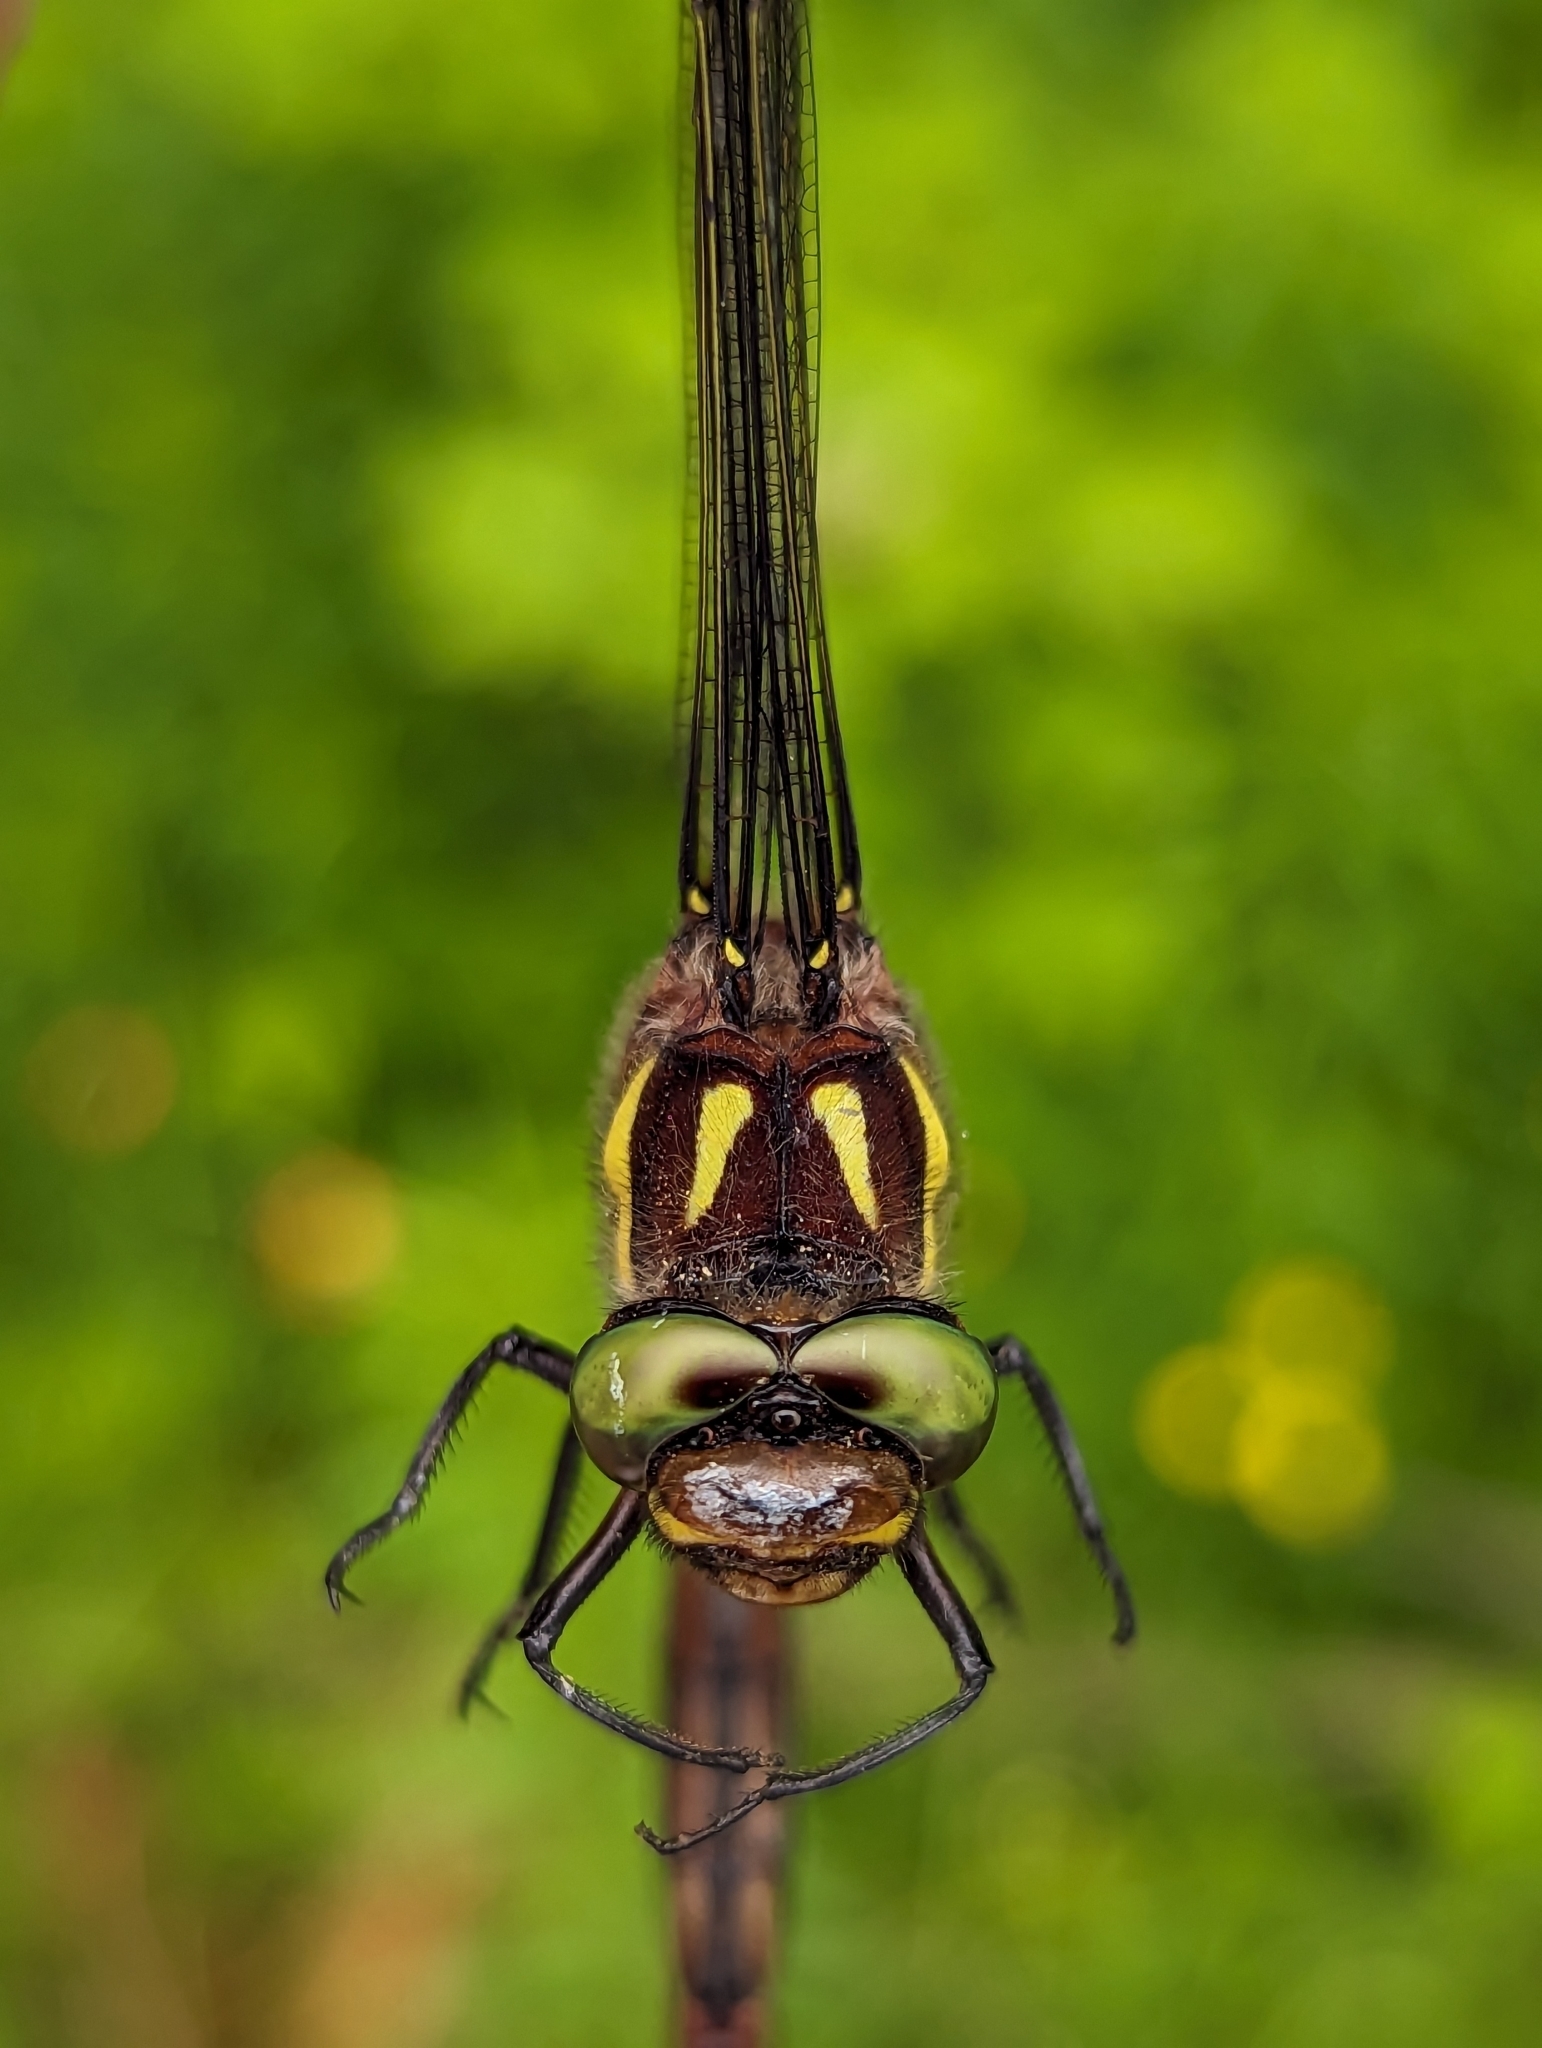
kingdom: Animalia
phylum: Arthropoda
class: Insecta
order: Odonata
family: Cordulegastridae
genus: Cordulegaster
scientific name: Cordulegaster maculata
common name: Twin-spotted spiketail
